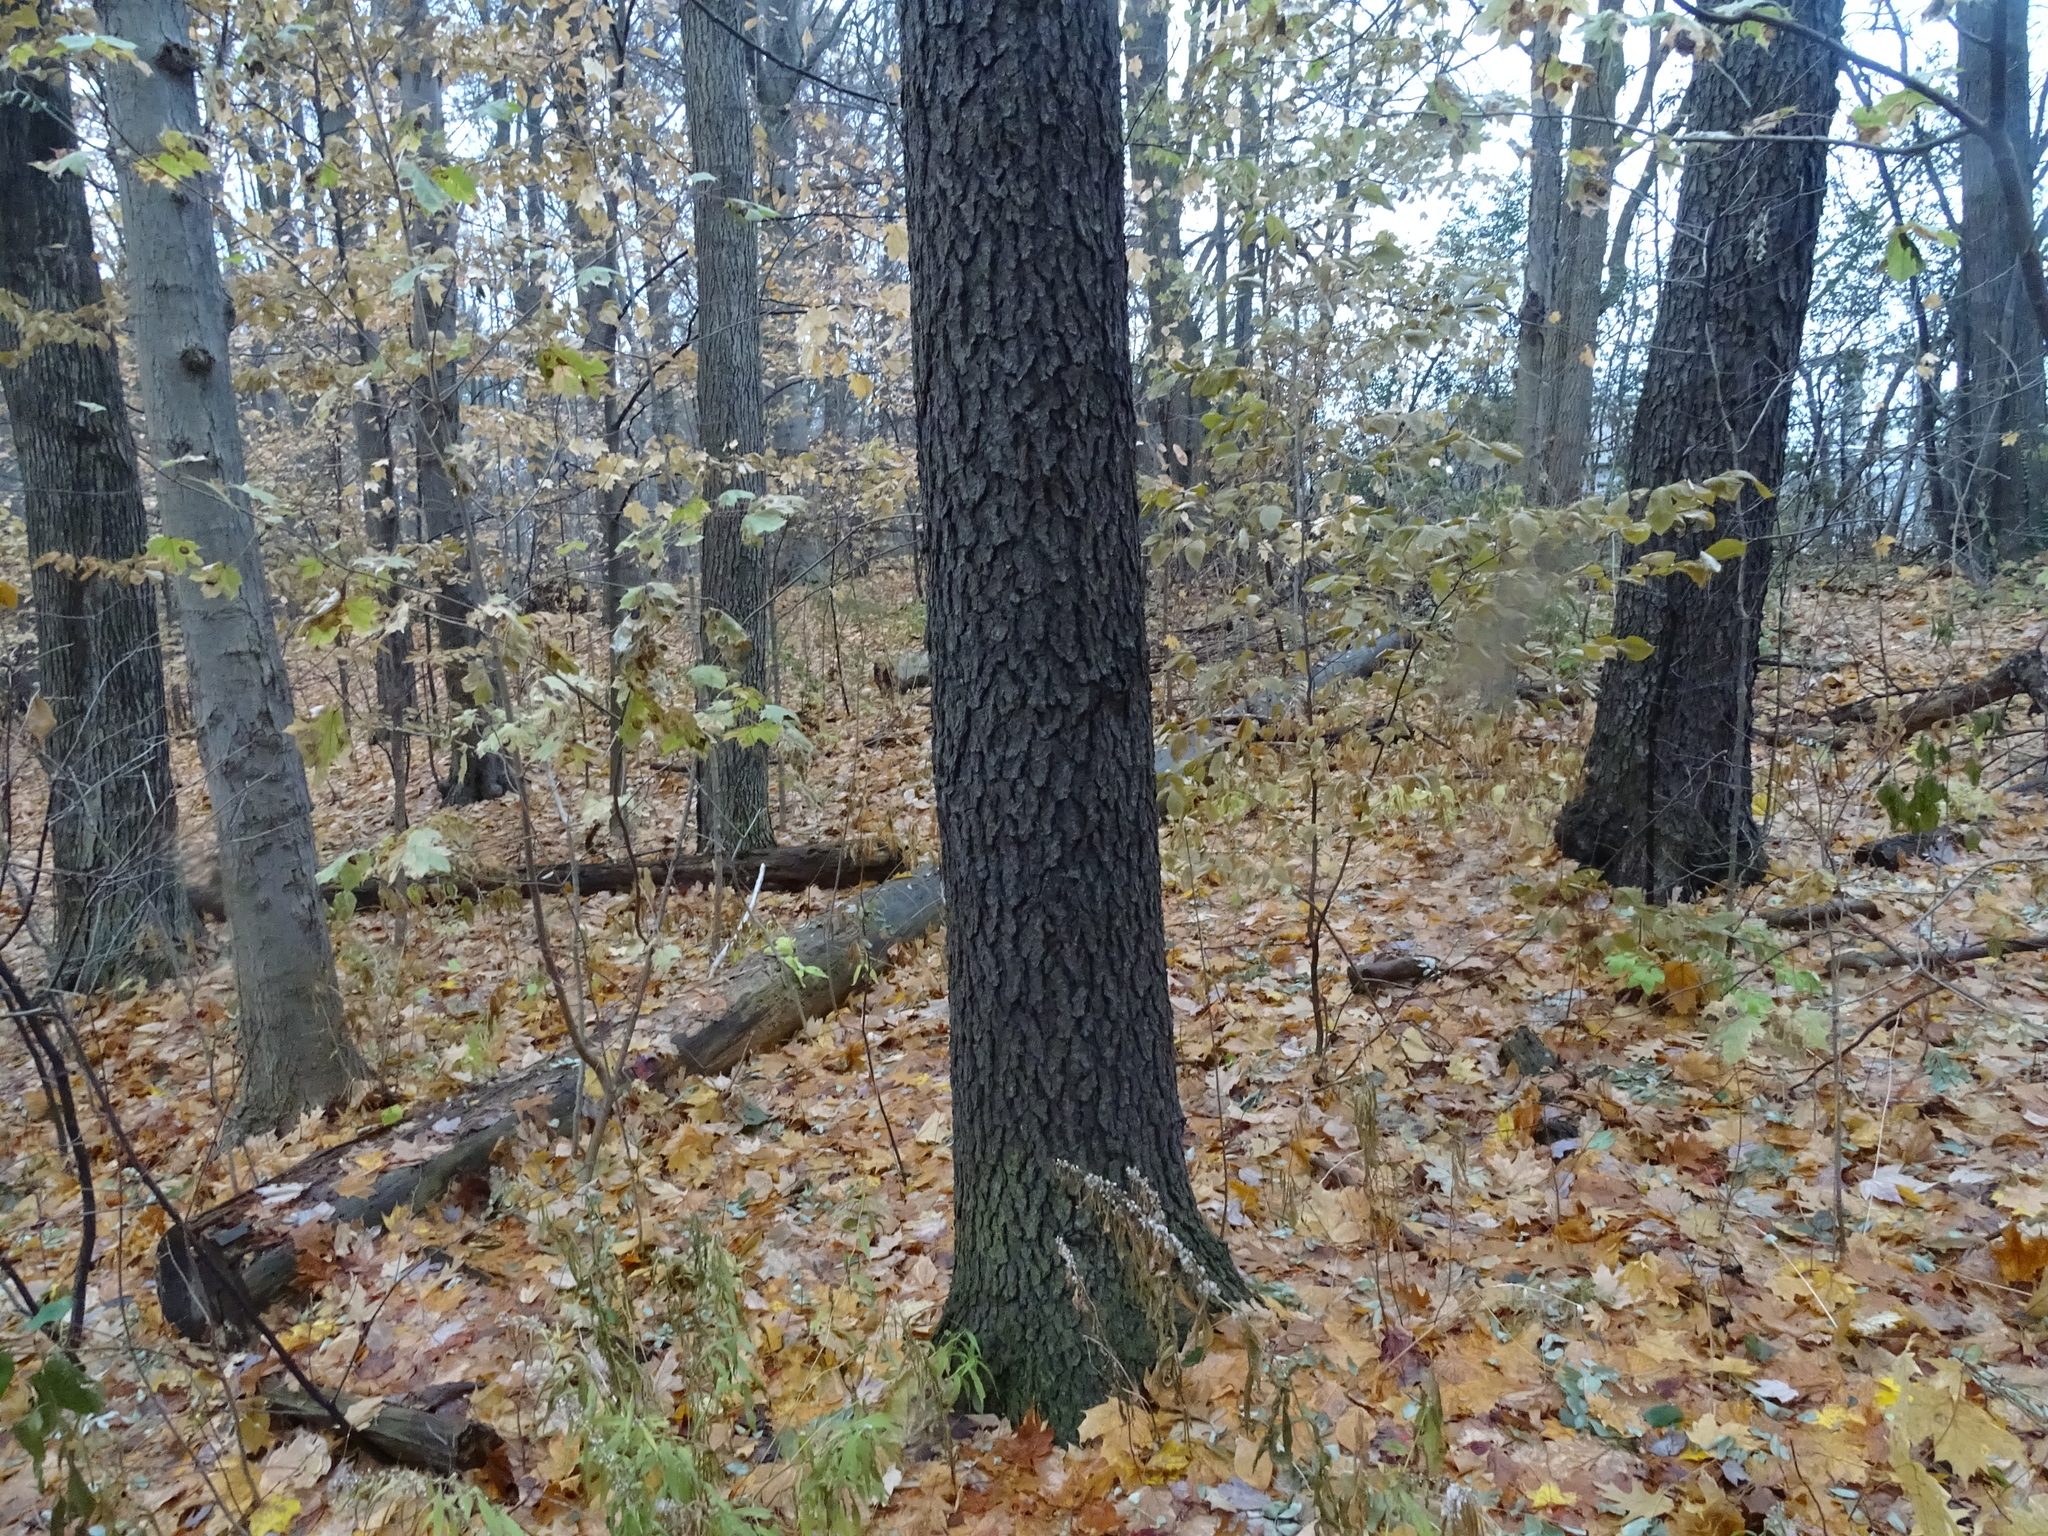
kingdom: Plantae
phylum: Tracheophyta
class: Magnoliopsida
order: Rosales
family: Rosaceae
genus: Prunus
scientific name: Prunus serotina
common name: Black cherry
